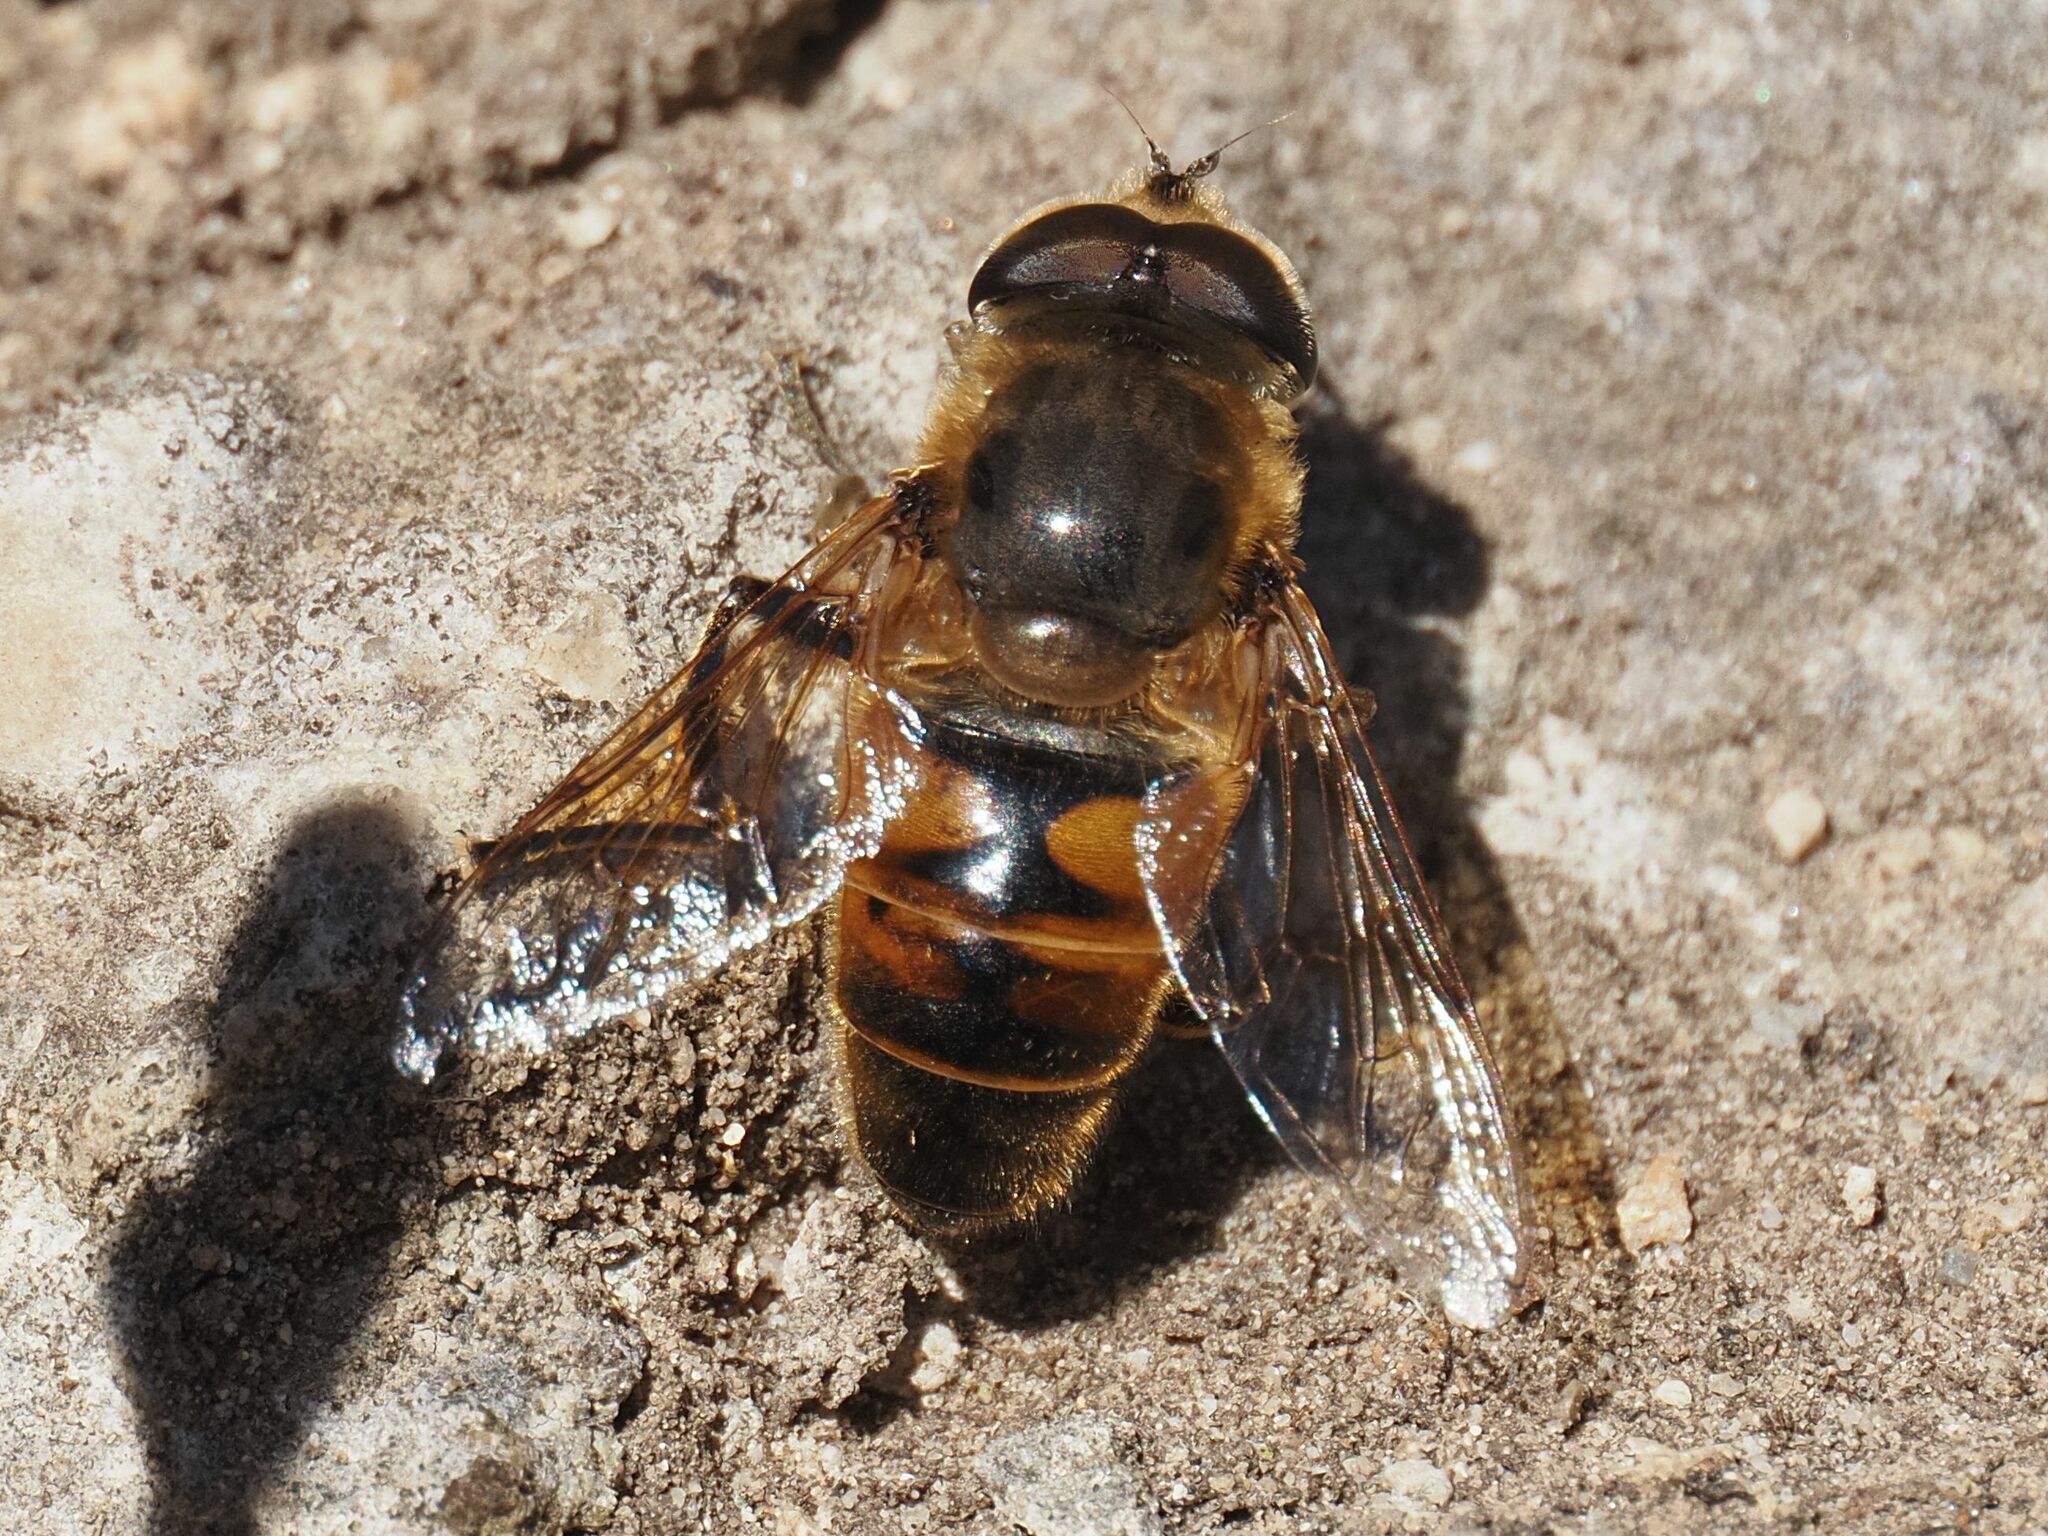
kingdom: Animalia
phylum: Arthropoda
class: Insecta
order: Diptera
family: Syrphidae
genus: Eristalis
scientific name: Eristalis tenax
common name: Drone fly
